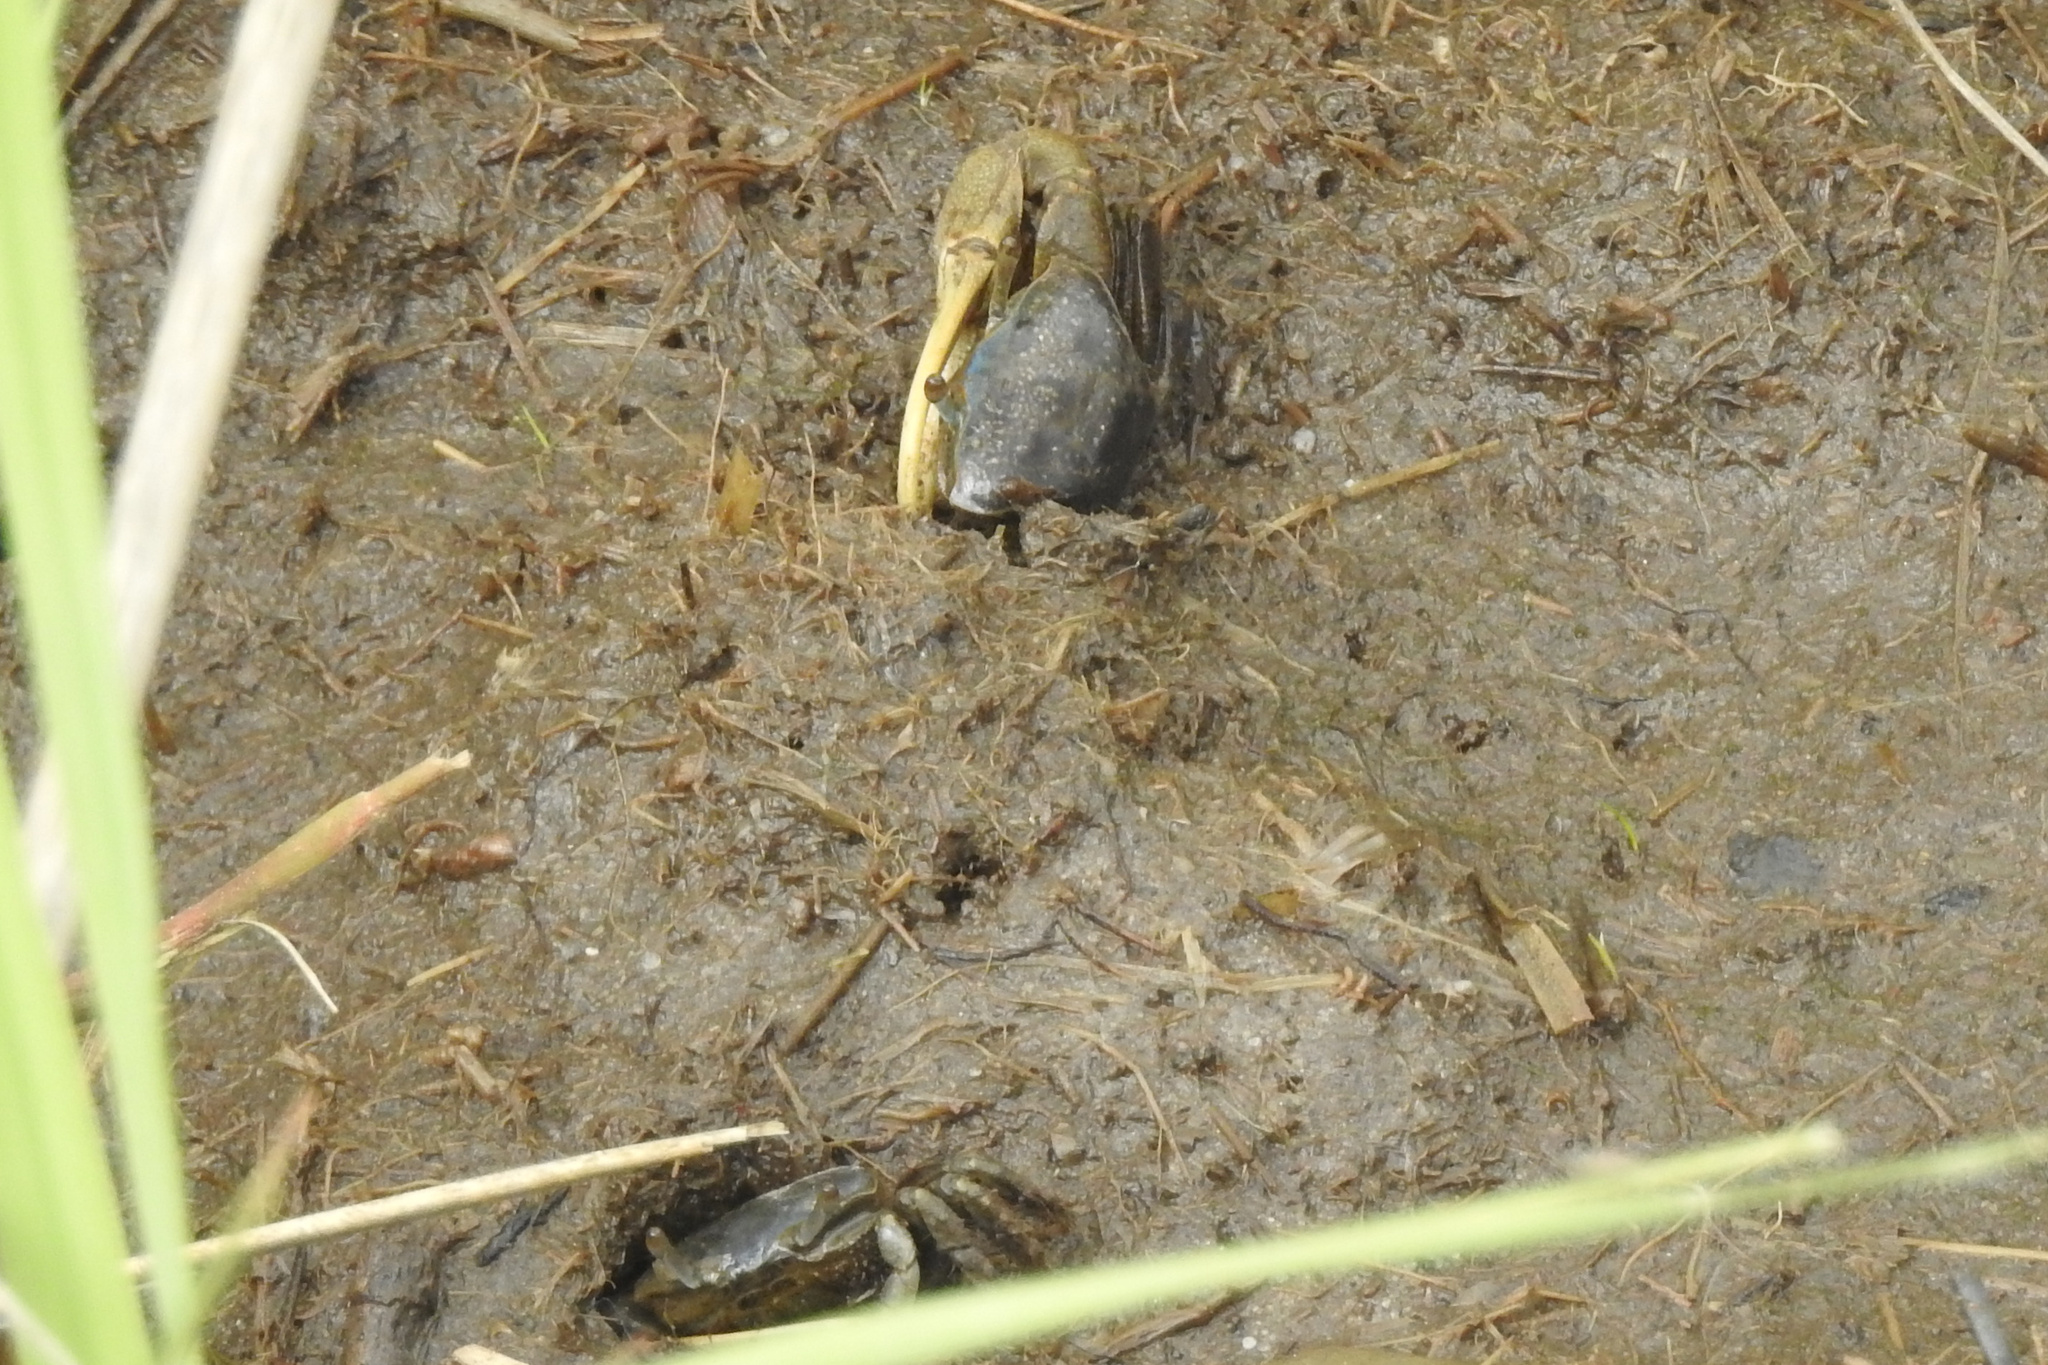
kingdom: Animalia
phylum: Arthropoda
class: Malacostraca
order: Decapoda
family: Ocypodidae
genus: Minuca
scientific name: Minuca pugnax
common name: Mud fiddler crab
